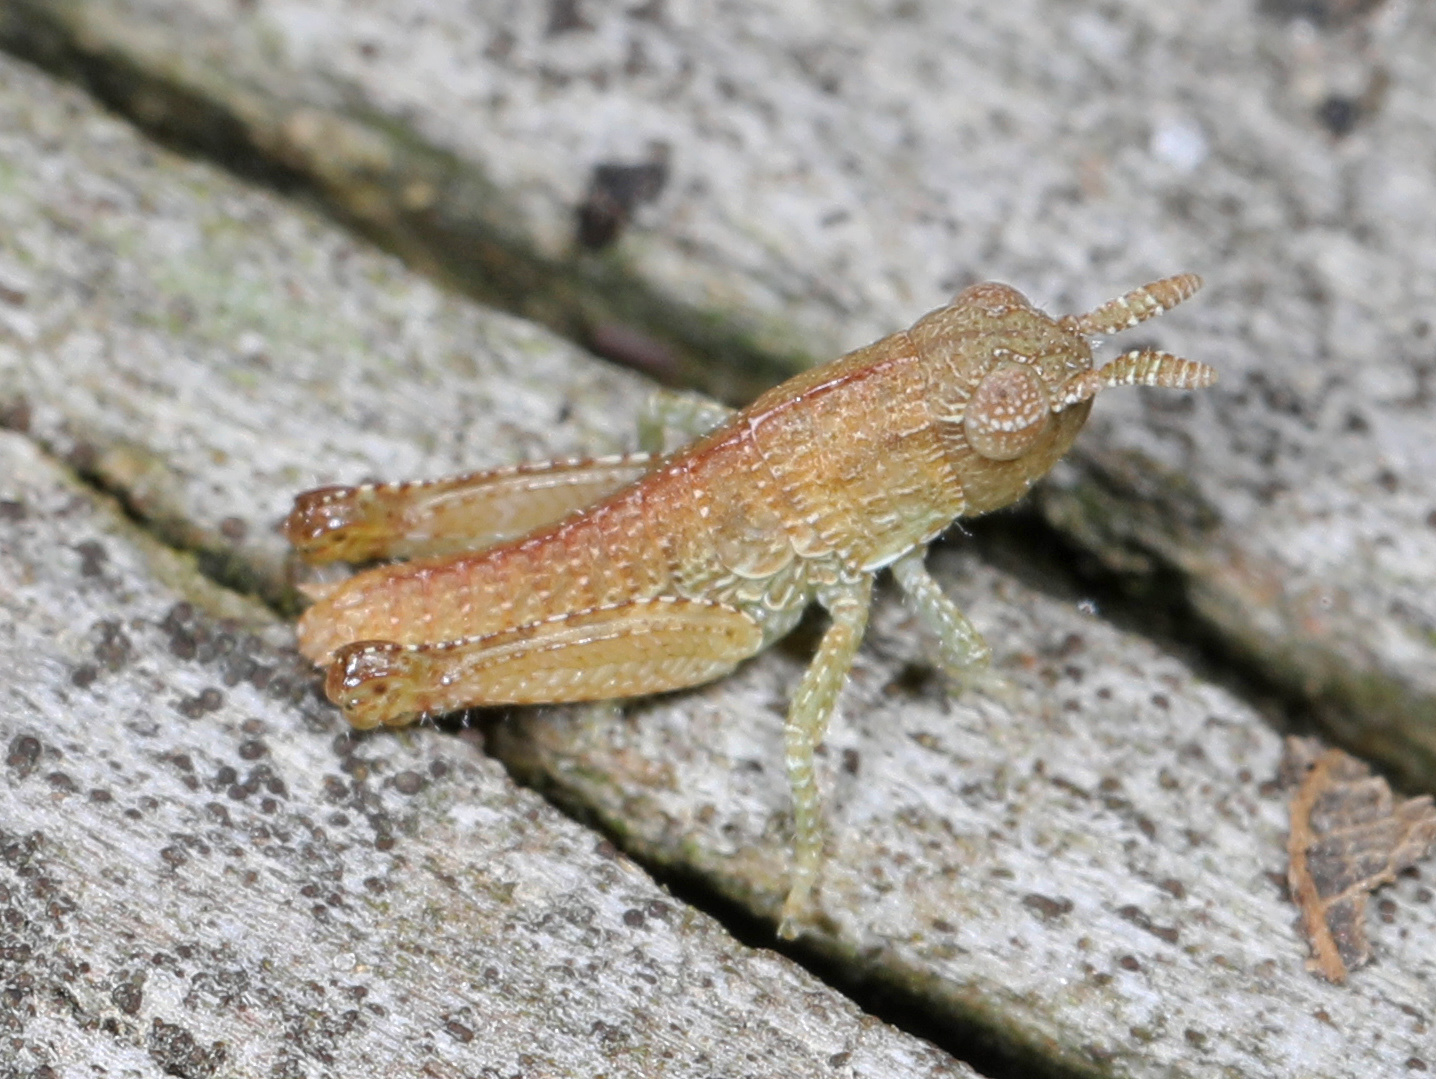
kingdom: Animalia
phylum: Arthropoda
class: Insecta
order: Orthoptera
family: Acrididae
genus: Chortophaga
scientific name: Chortophaga viridifasciata
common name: Green-striped grasshopper
